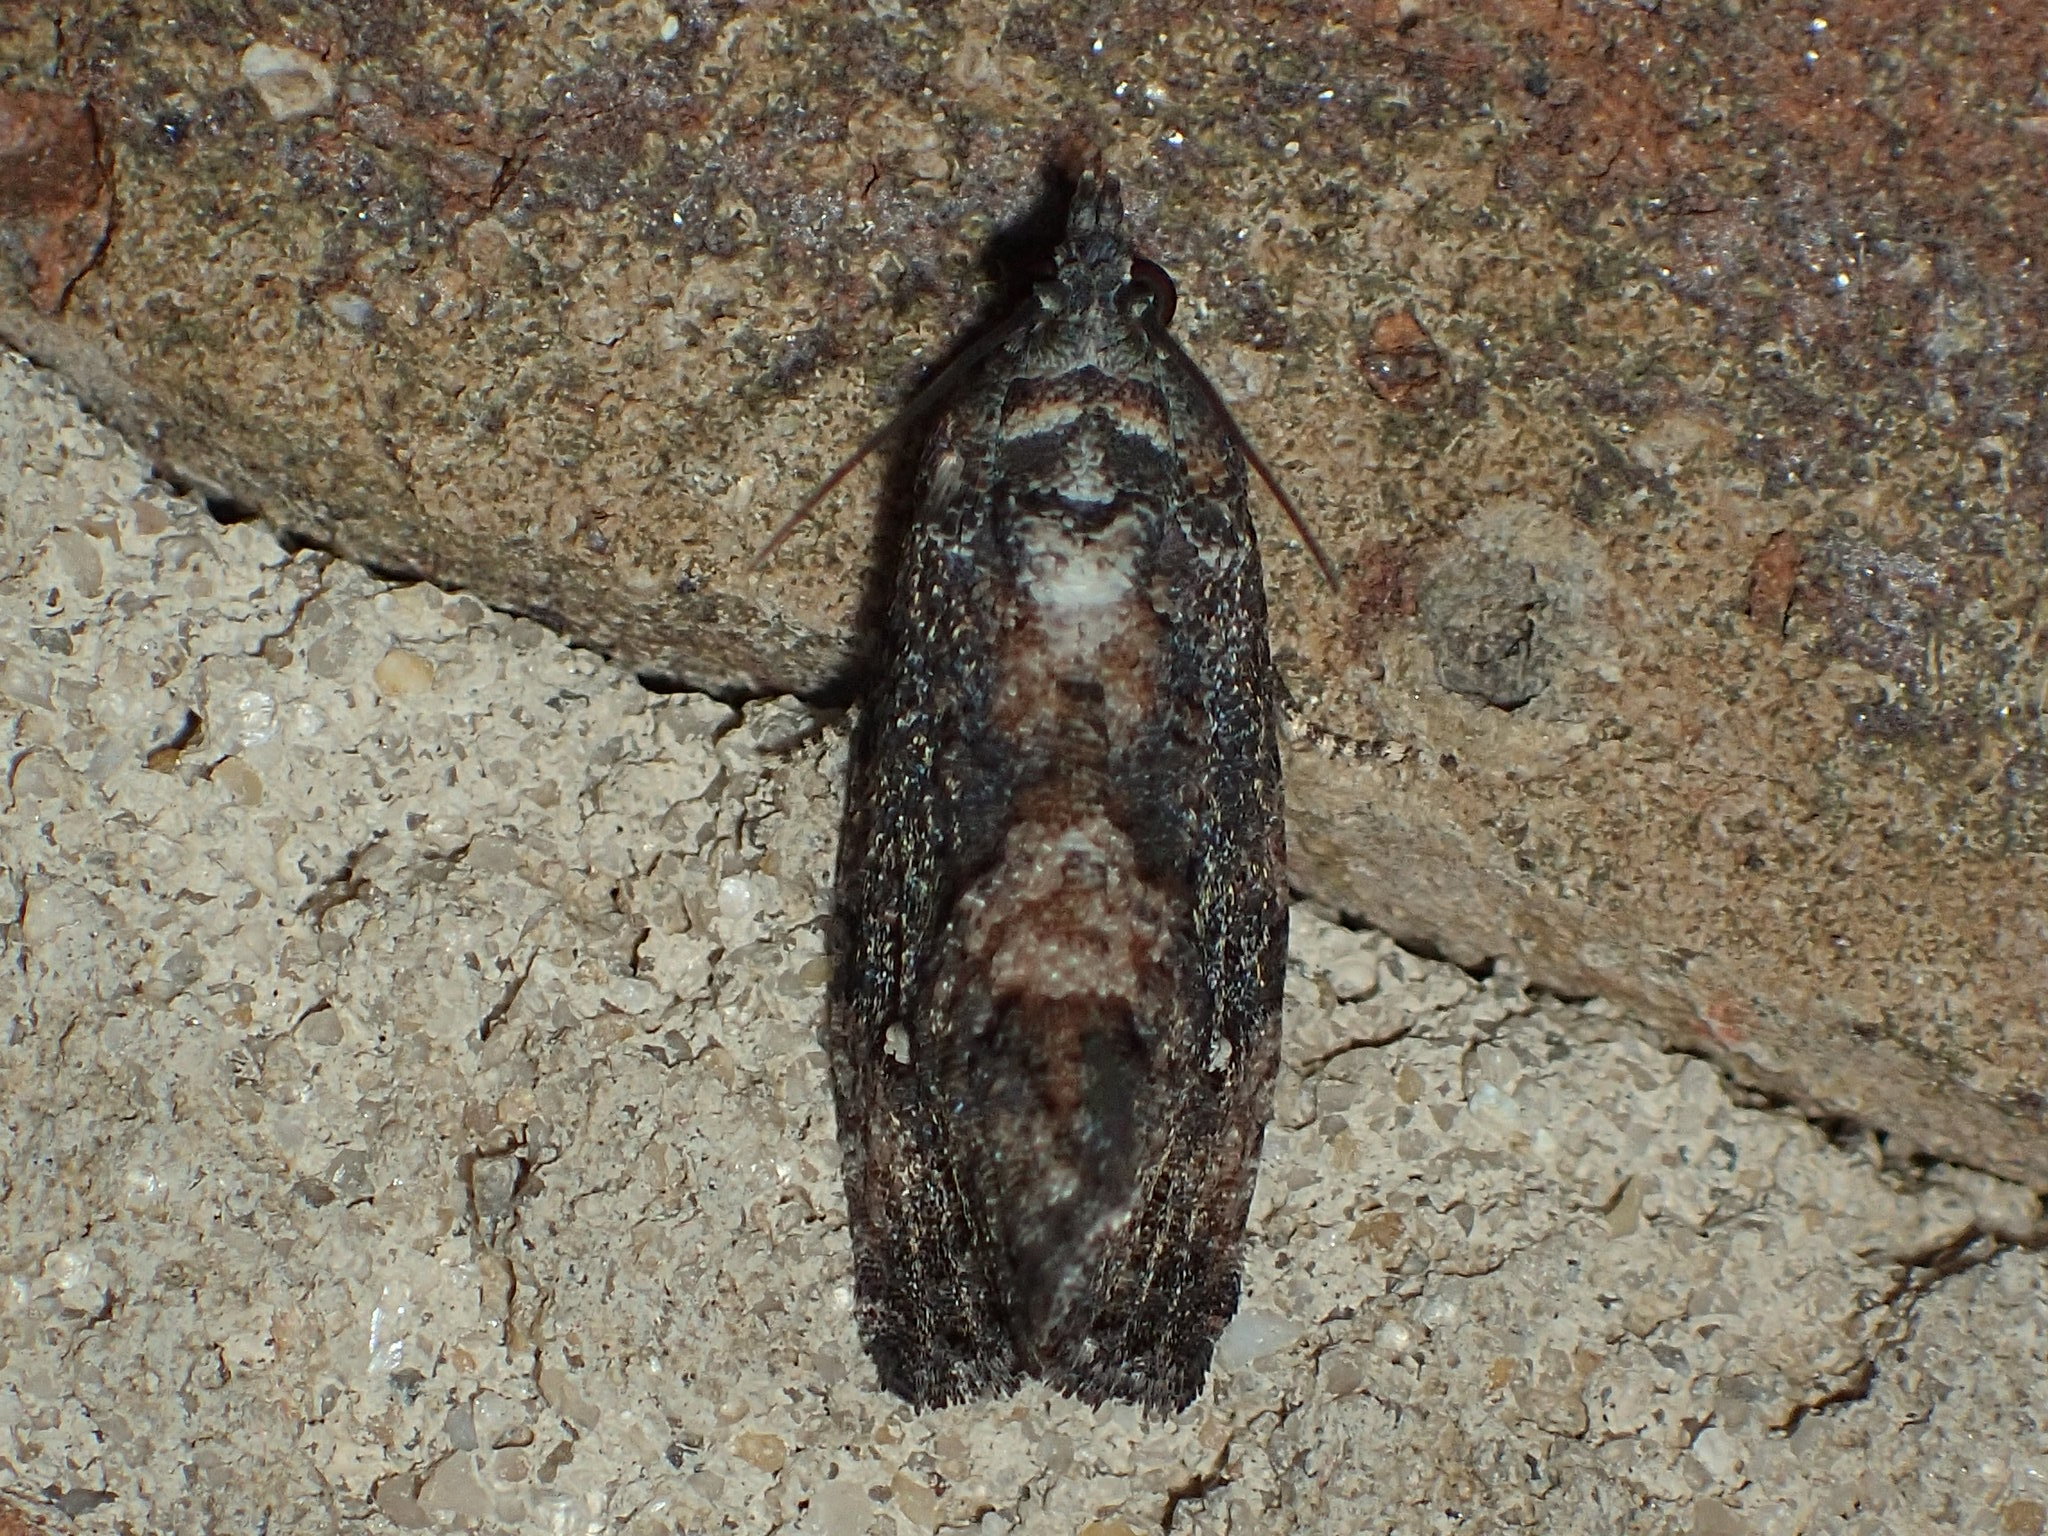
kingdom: Animalia
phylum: Arthropoda
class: Insecta
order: Lepidoptera
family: Tortricidae
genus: Gymnandrosoma
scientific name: Gymnandrosoma punctidiscanum
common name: Dotted ecdytolopha moth
